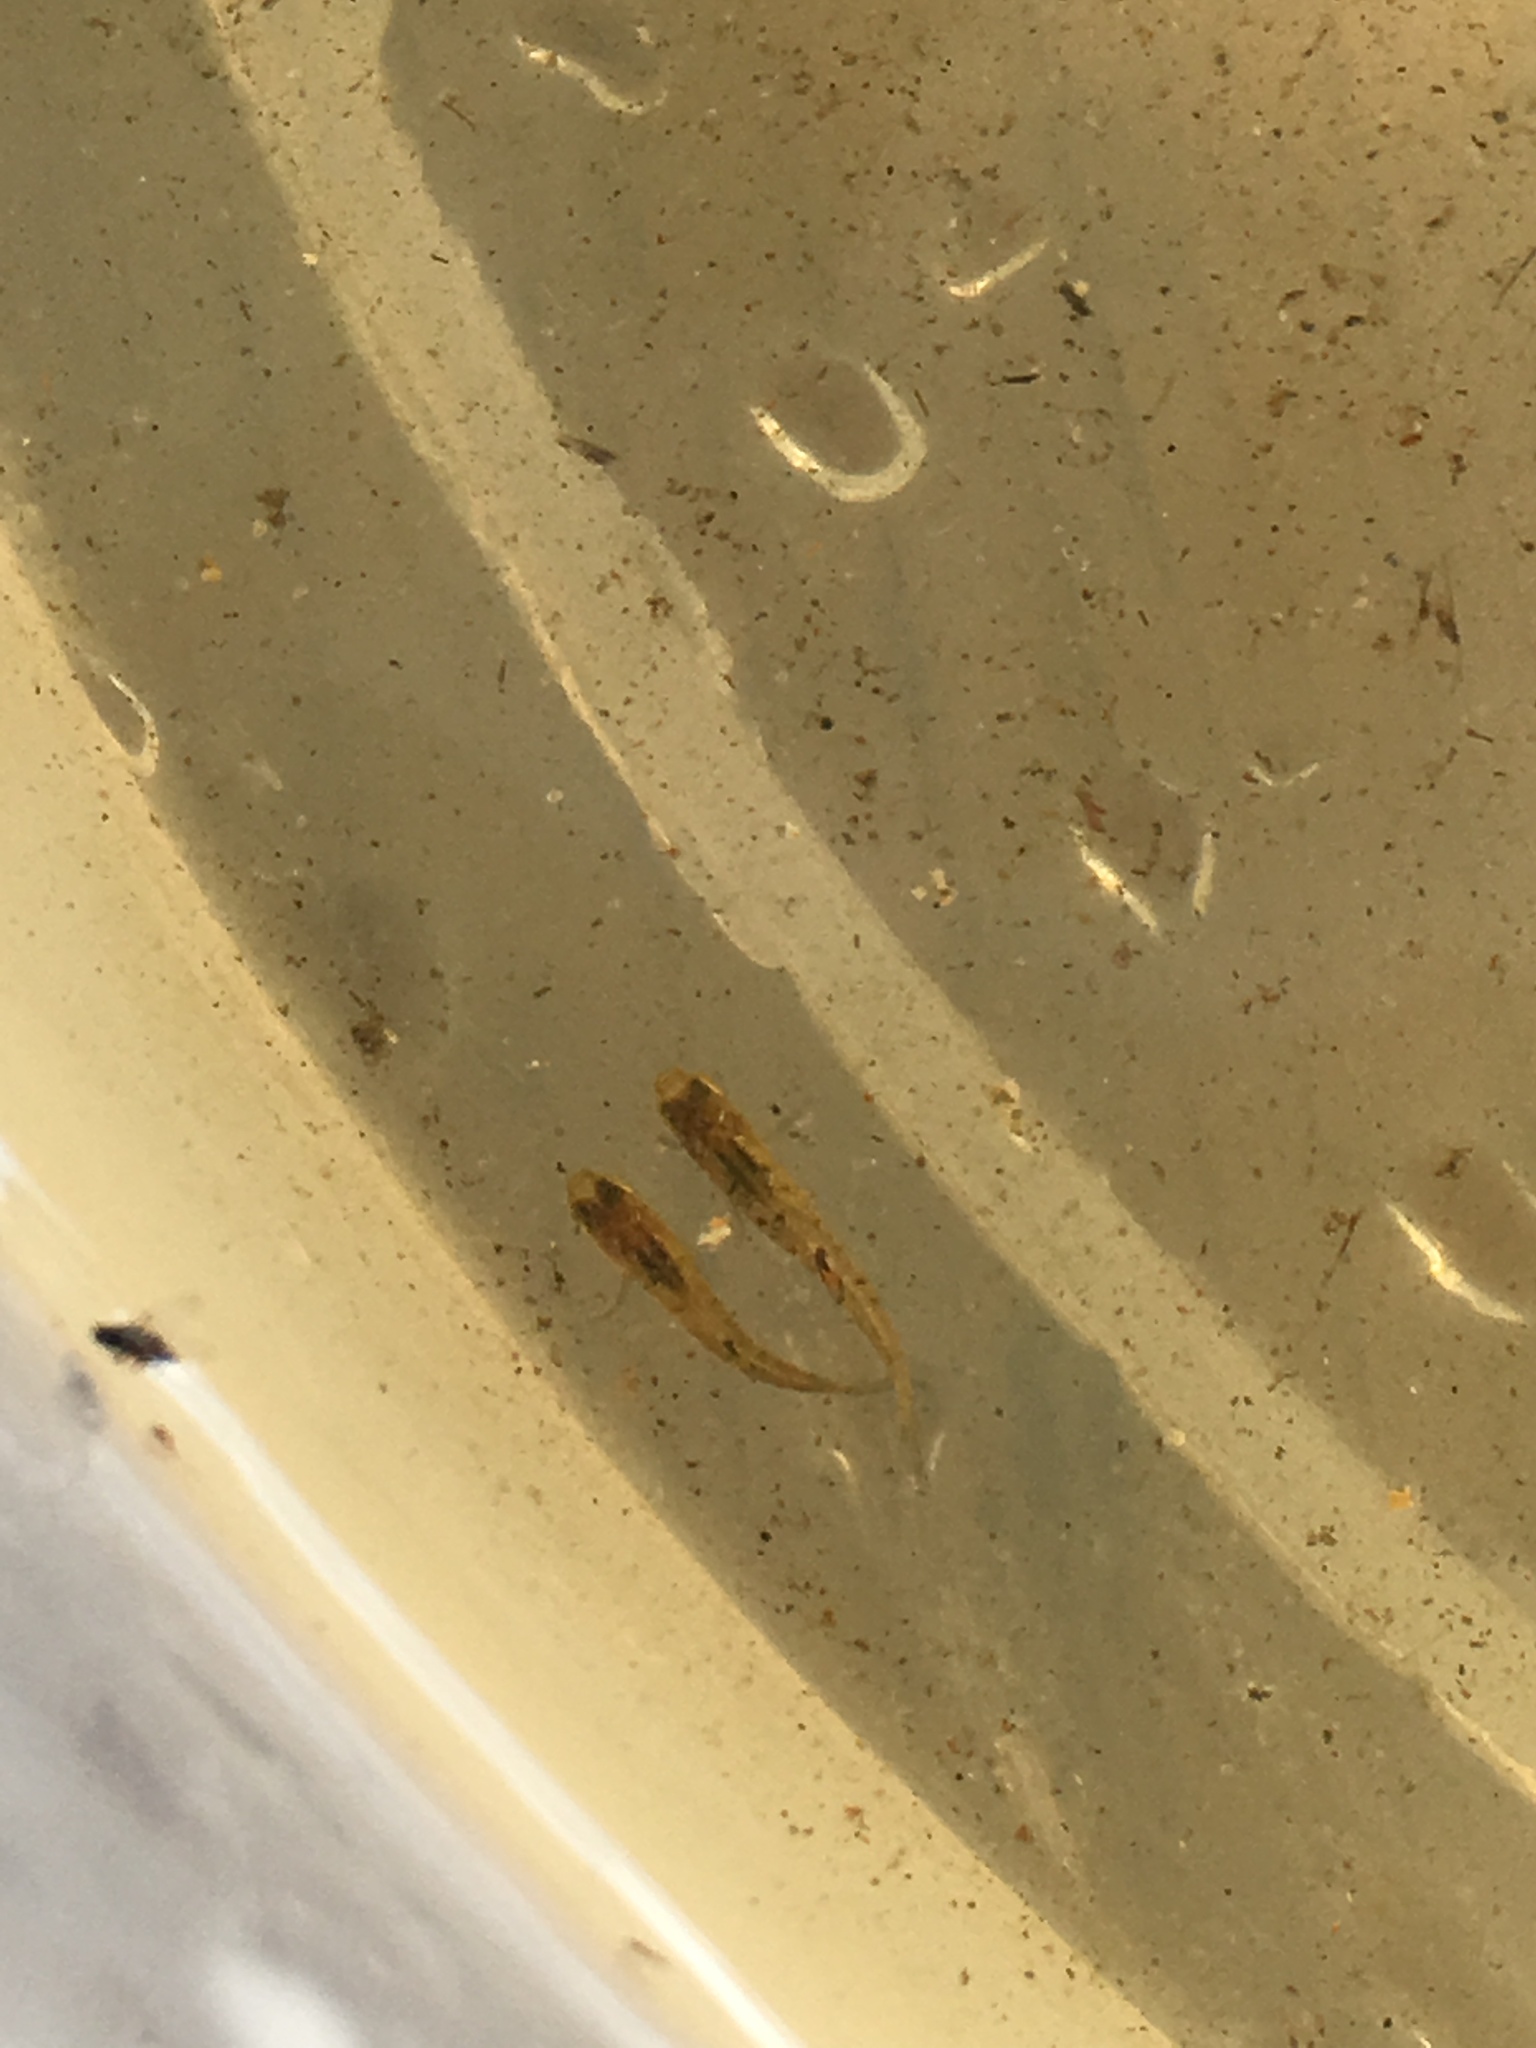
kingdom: Animalia
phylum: Chordata
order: Cyprinodontiformes
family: Poeciliidae
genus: Heterandria
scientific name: Heterandria formosa
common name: Least killifish
